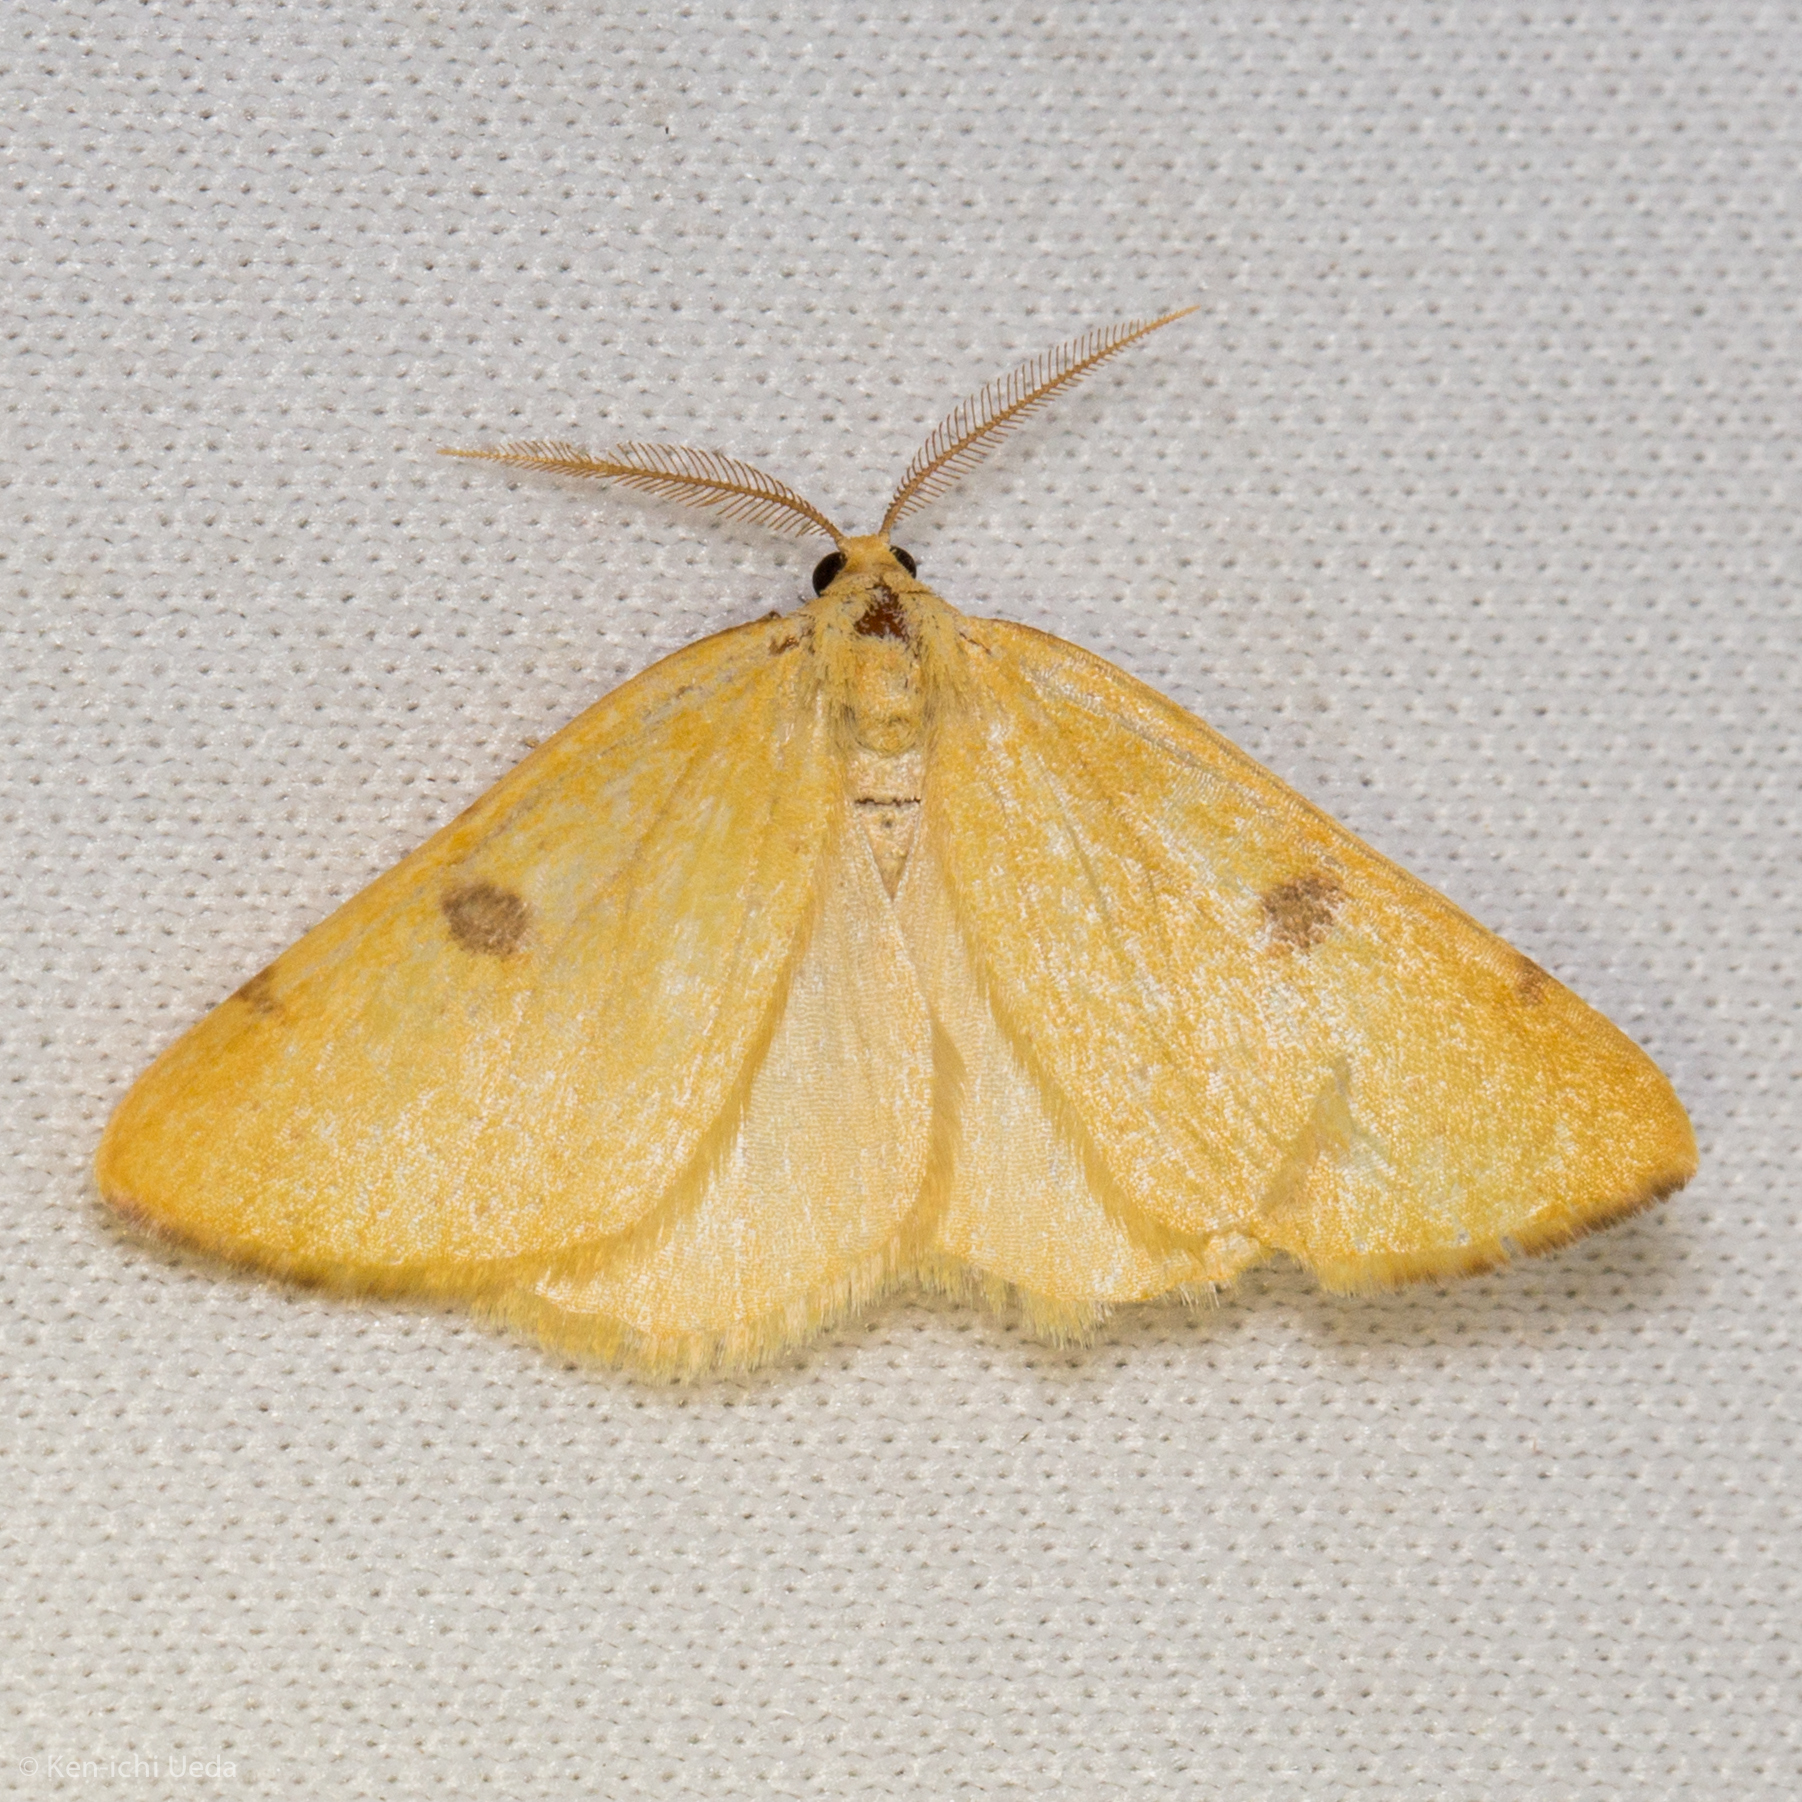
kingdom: Animalia
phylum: Arthropoda
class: Insecta
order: Lepidoptera
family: Geometridae
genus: Hesperumia
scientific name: Hesperumia sulphuraria
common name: Sulphur moth
